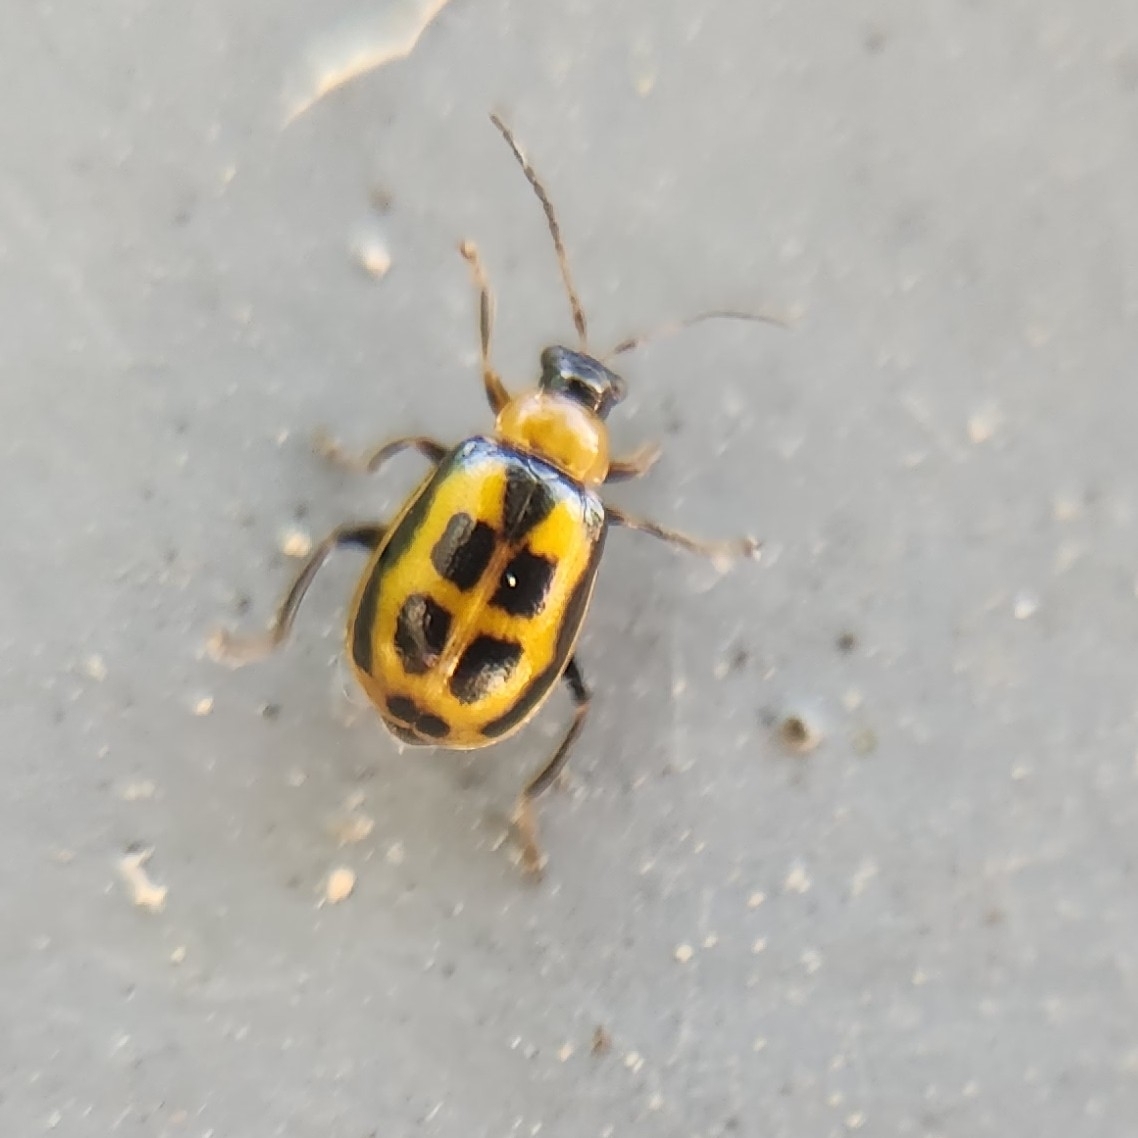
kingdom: Animalia
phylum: Arthropoda
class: Insecta
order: Coleoptera
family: Chrysomelidae
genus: Cerotoma
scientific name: Cerotoma trifurcata
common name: Bean leaf beetle
